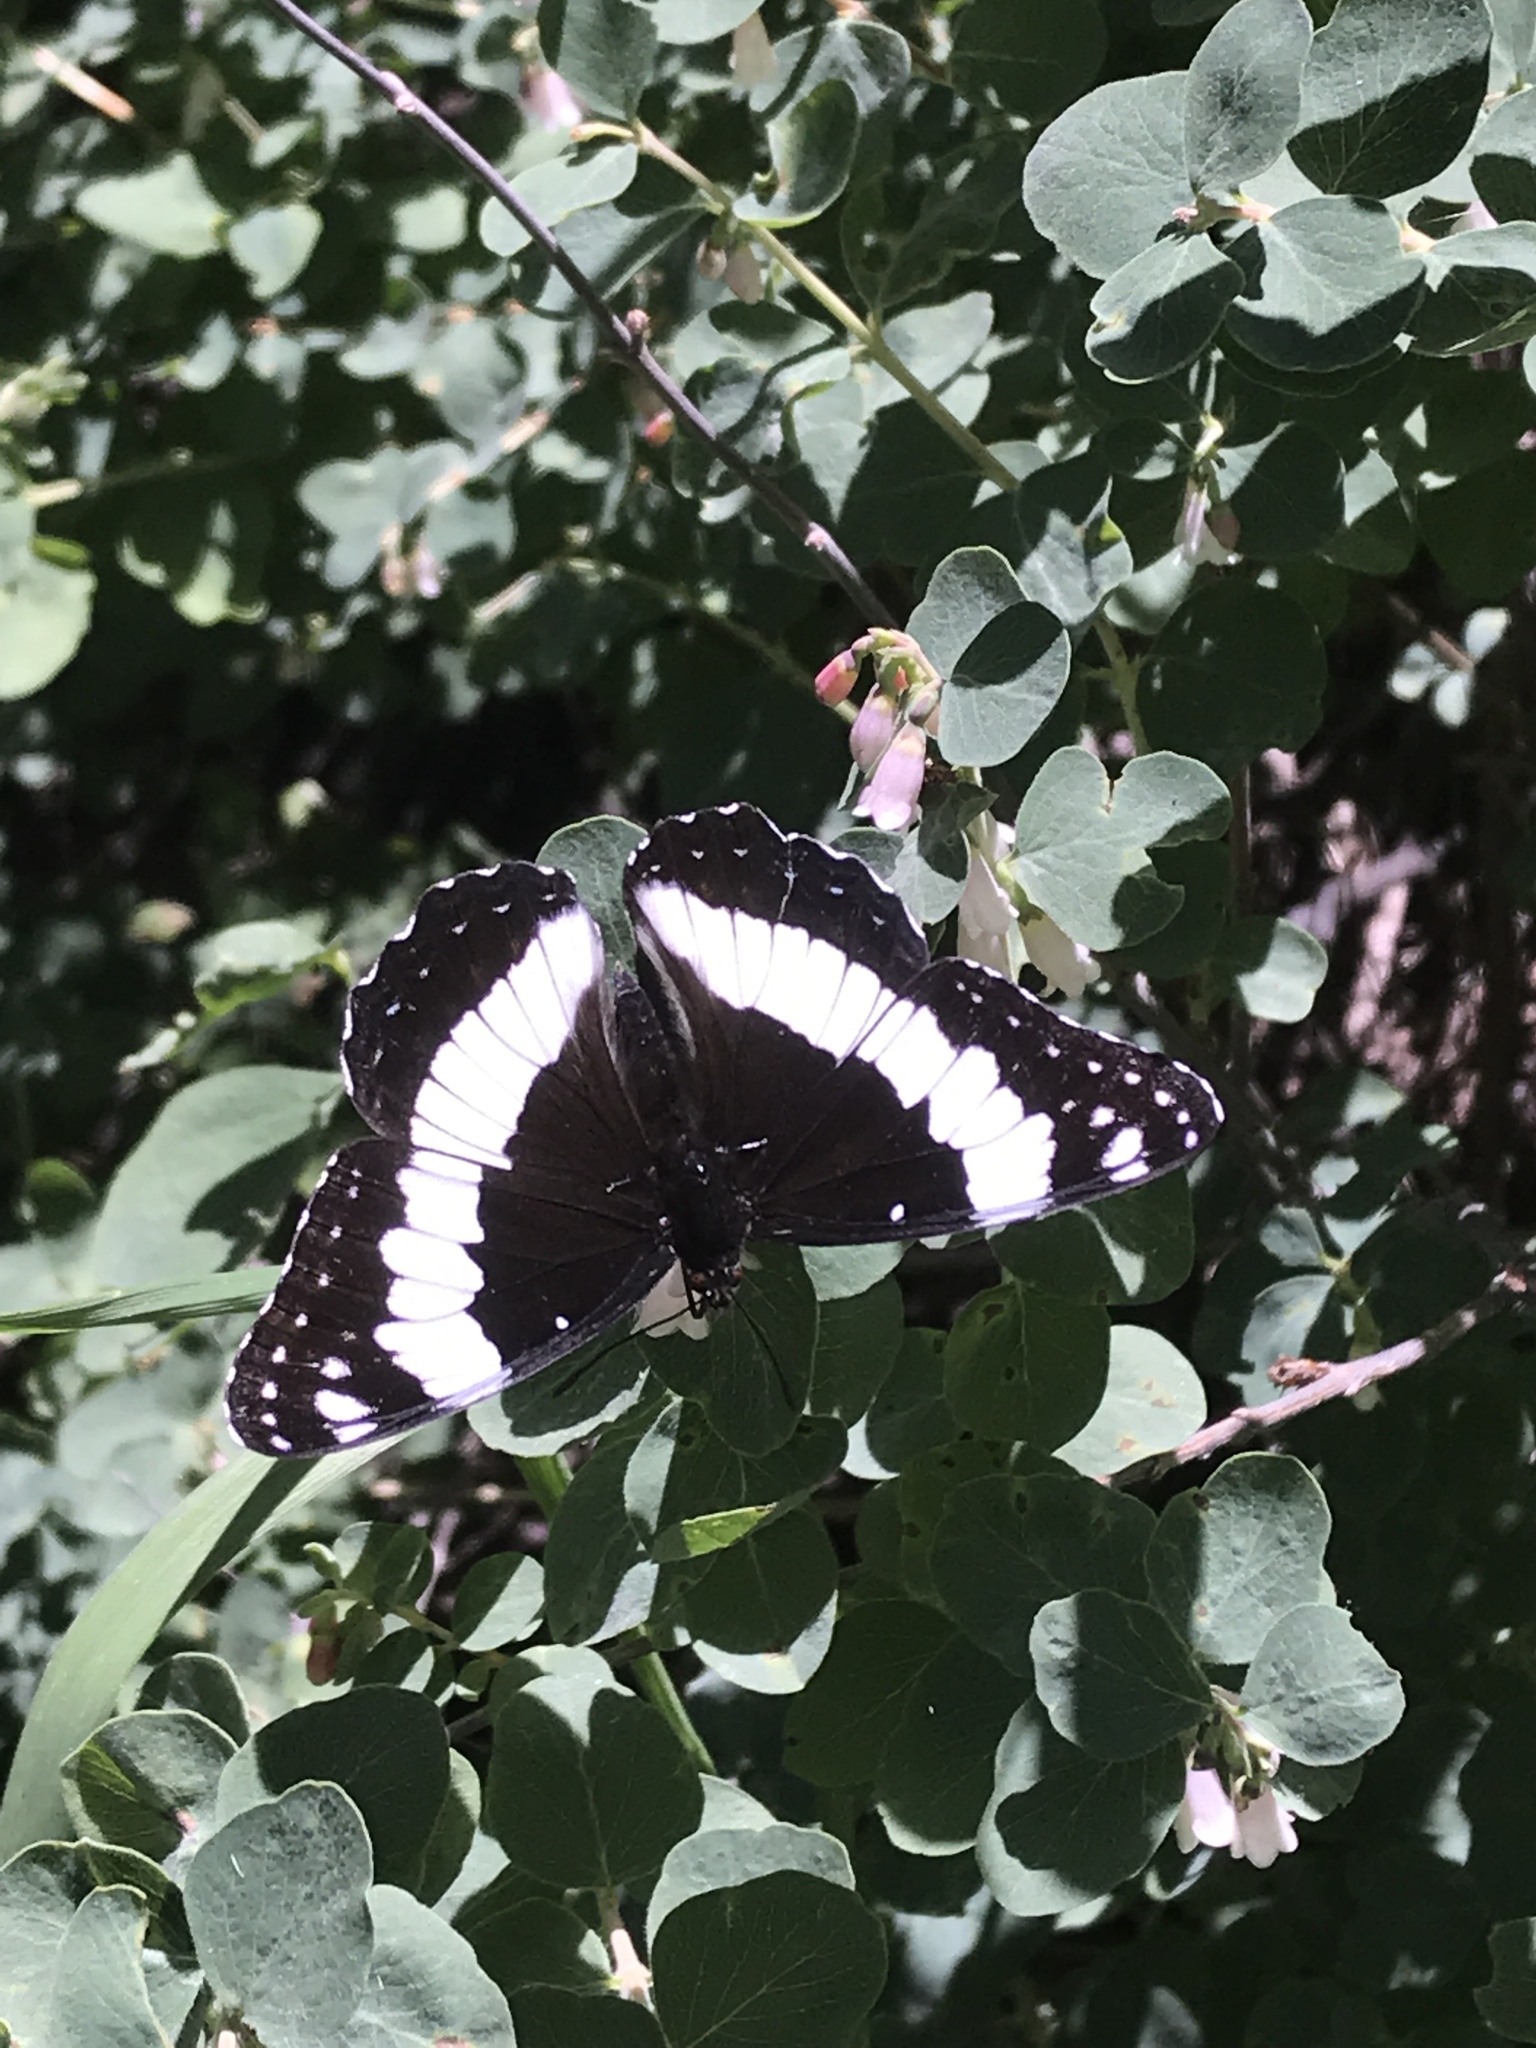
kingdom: Animalia
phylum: Arthropoda
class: Insecta
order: Lepidoptera
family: Nymphalidae
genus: Limenitis
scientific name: Limenitis weidemeyerii
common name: Weidemeyer's admiral
